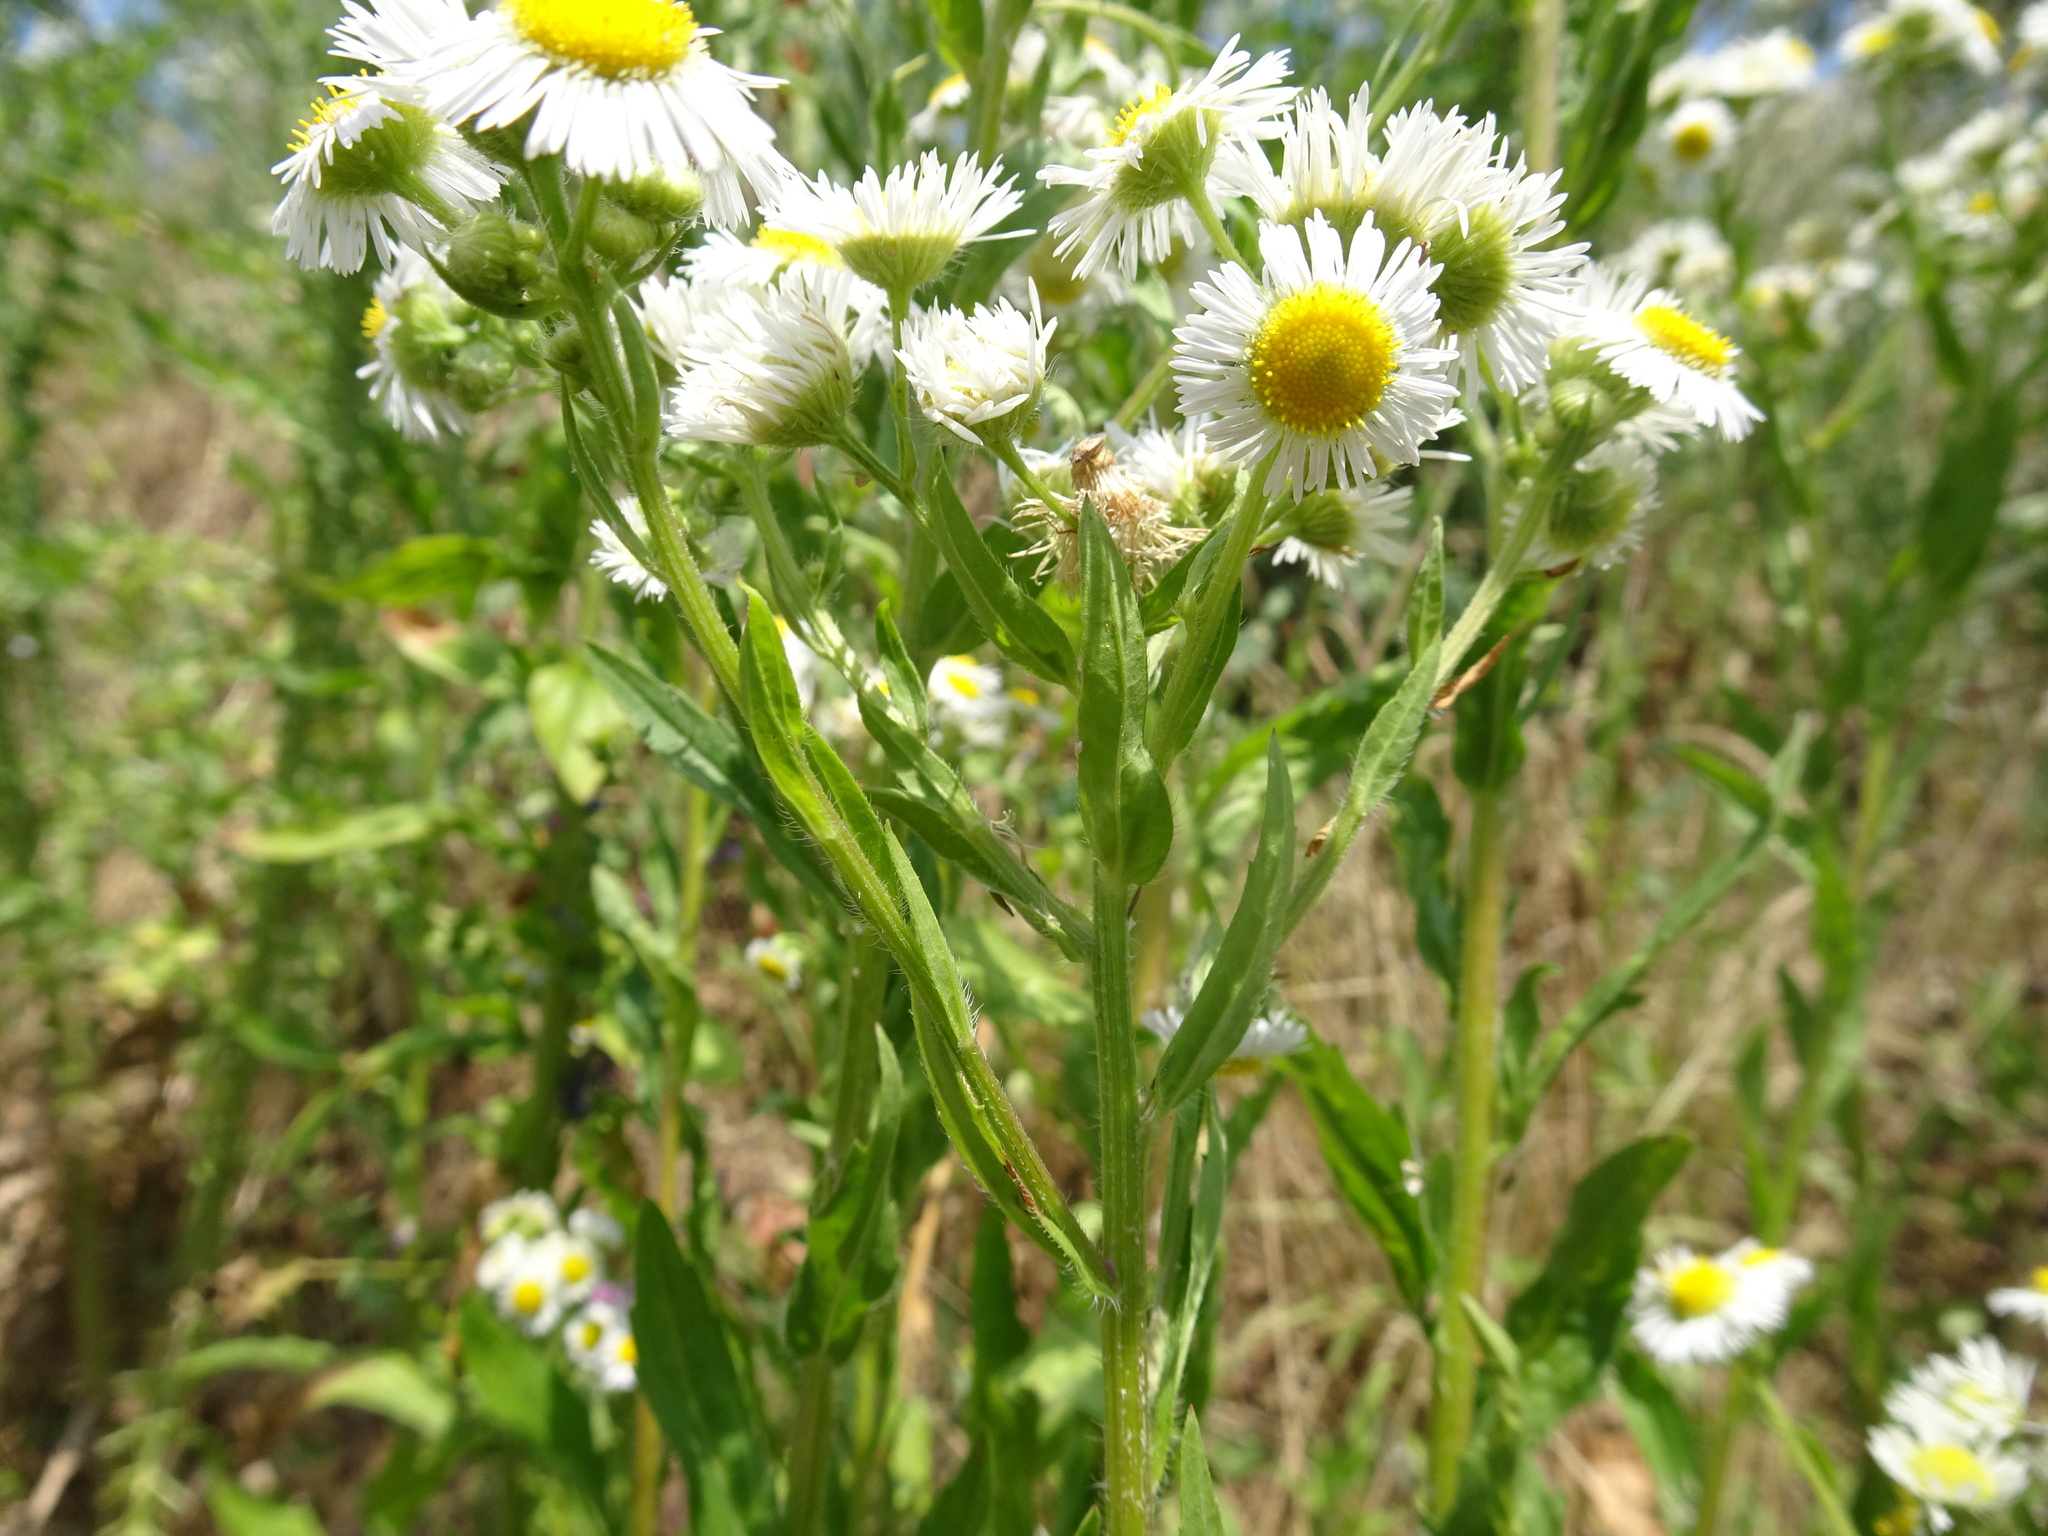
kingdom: Plantae
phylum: Tracheophyta
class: Magnoliopsida
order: Asterales
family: Asteraceae
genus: Erigeron
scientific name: Erigeron annuus
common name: Tall fleabane
